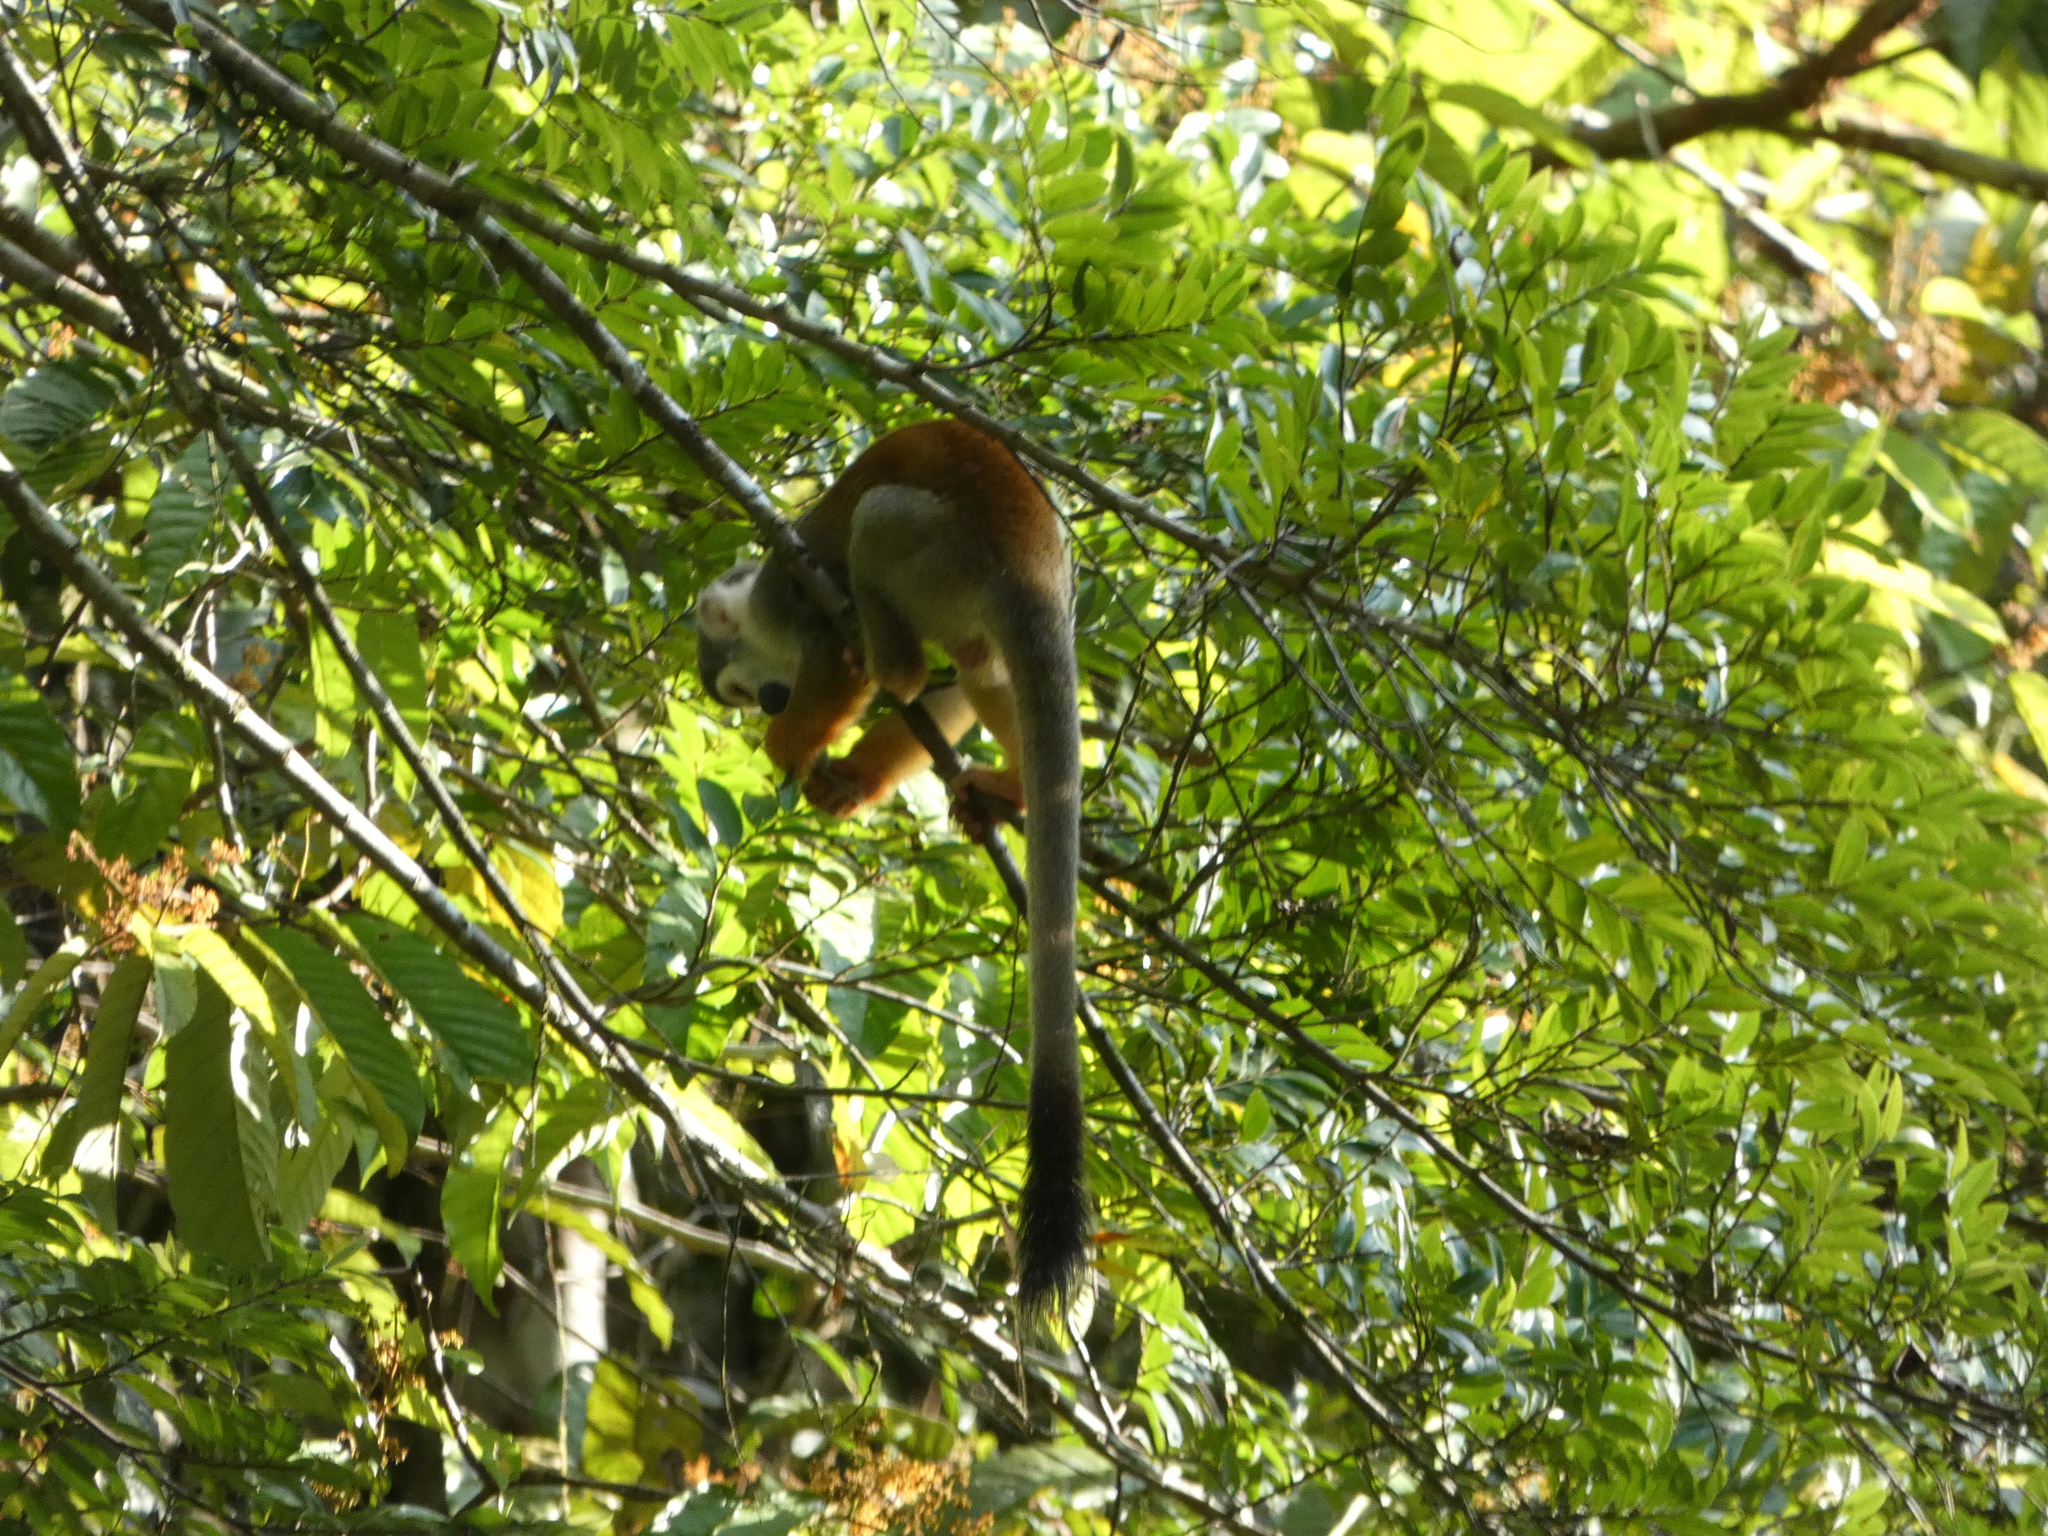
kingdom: Animalia
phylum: Chordata
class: Mammalia
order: Primates
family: Cebidae
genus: Saimiri
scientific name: Saimiri cassiquiarensis
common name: Humboldt’s squirrel monkey
